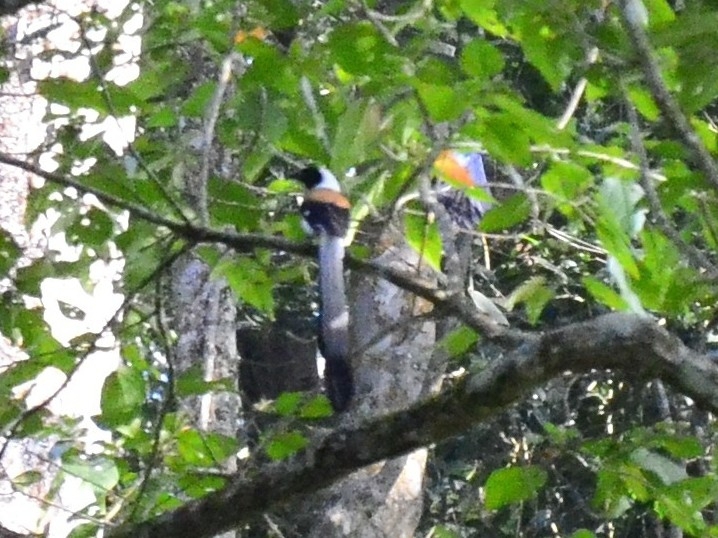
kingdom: Animalia
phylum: Chordata
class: Aves
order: Passeriformes
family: Corvidae
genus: Dendrocitta
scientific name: Dendrocitta leucogastra
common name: White-bellied treepie
